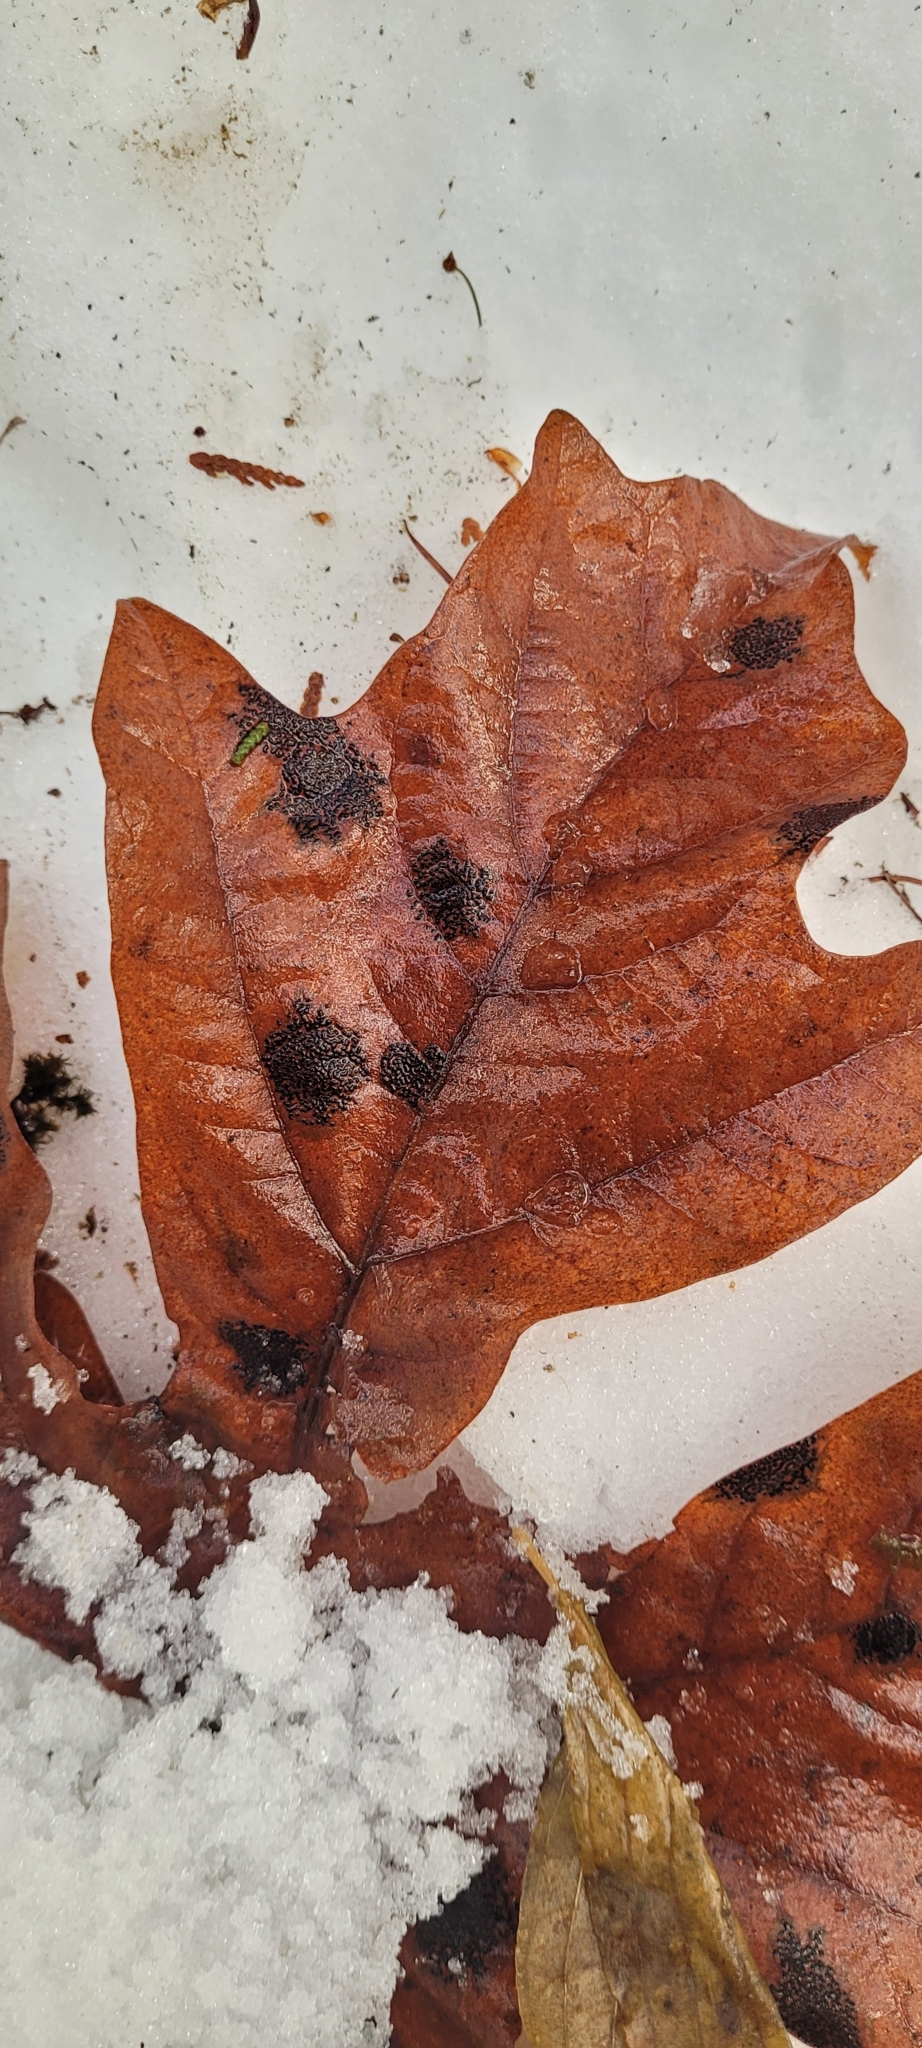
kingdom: Fungi
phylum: Ascomycota
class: Leotiomycetes
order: Rhytismatales
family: Rhytismataceae
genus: Rhytisma
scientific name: Rhytisma punctatum
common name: Speckled tar spot
